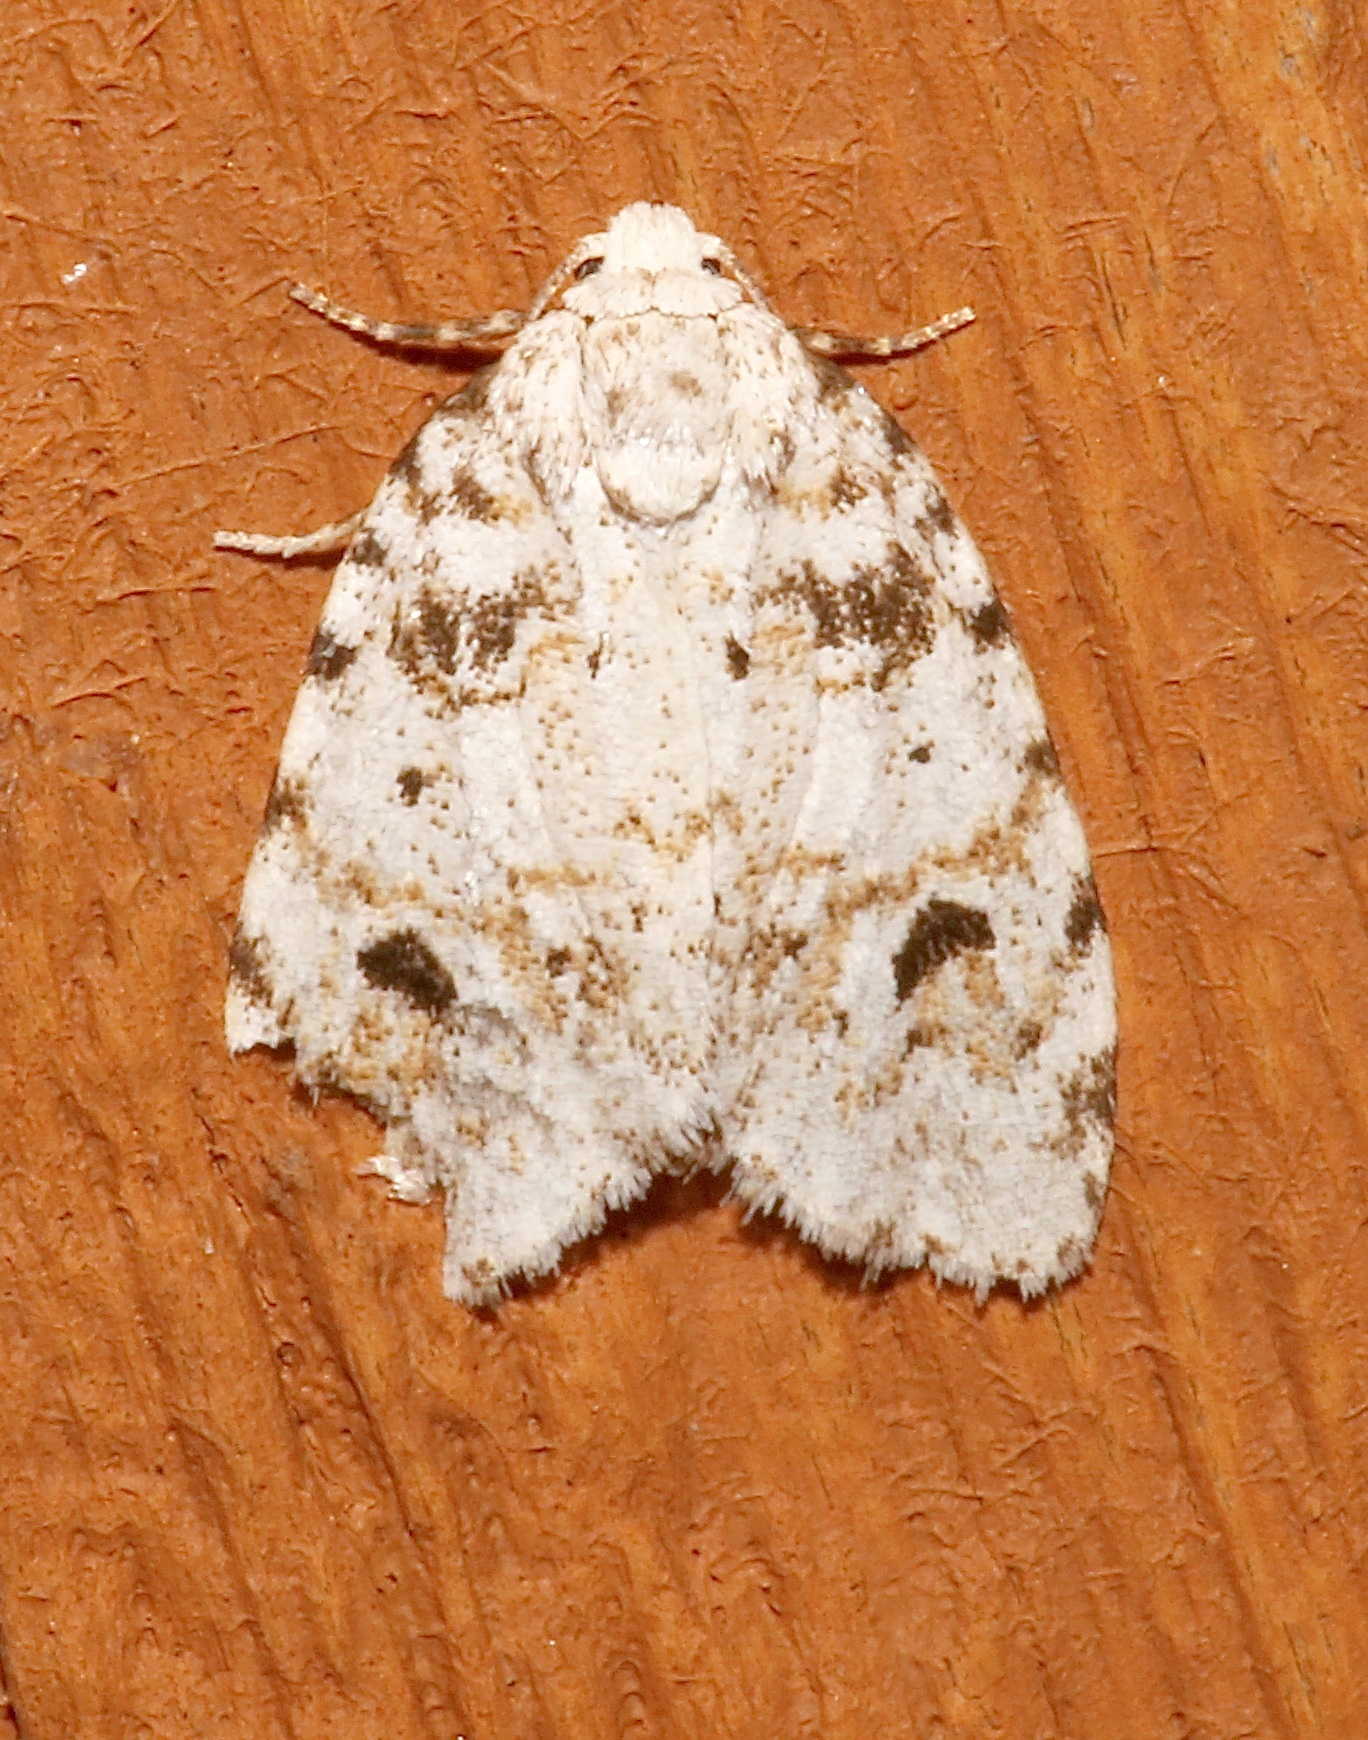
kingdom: Animalia
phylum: Arthropoda
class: Insecta
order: Lepidoptera
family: Erebidae
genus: Clemensia
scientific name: Clemensia ochreata
